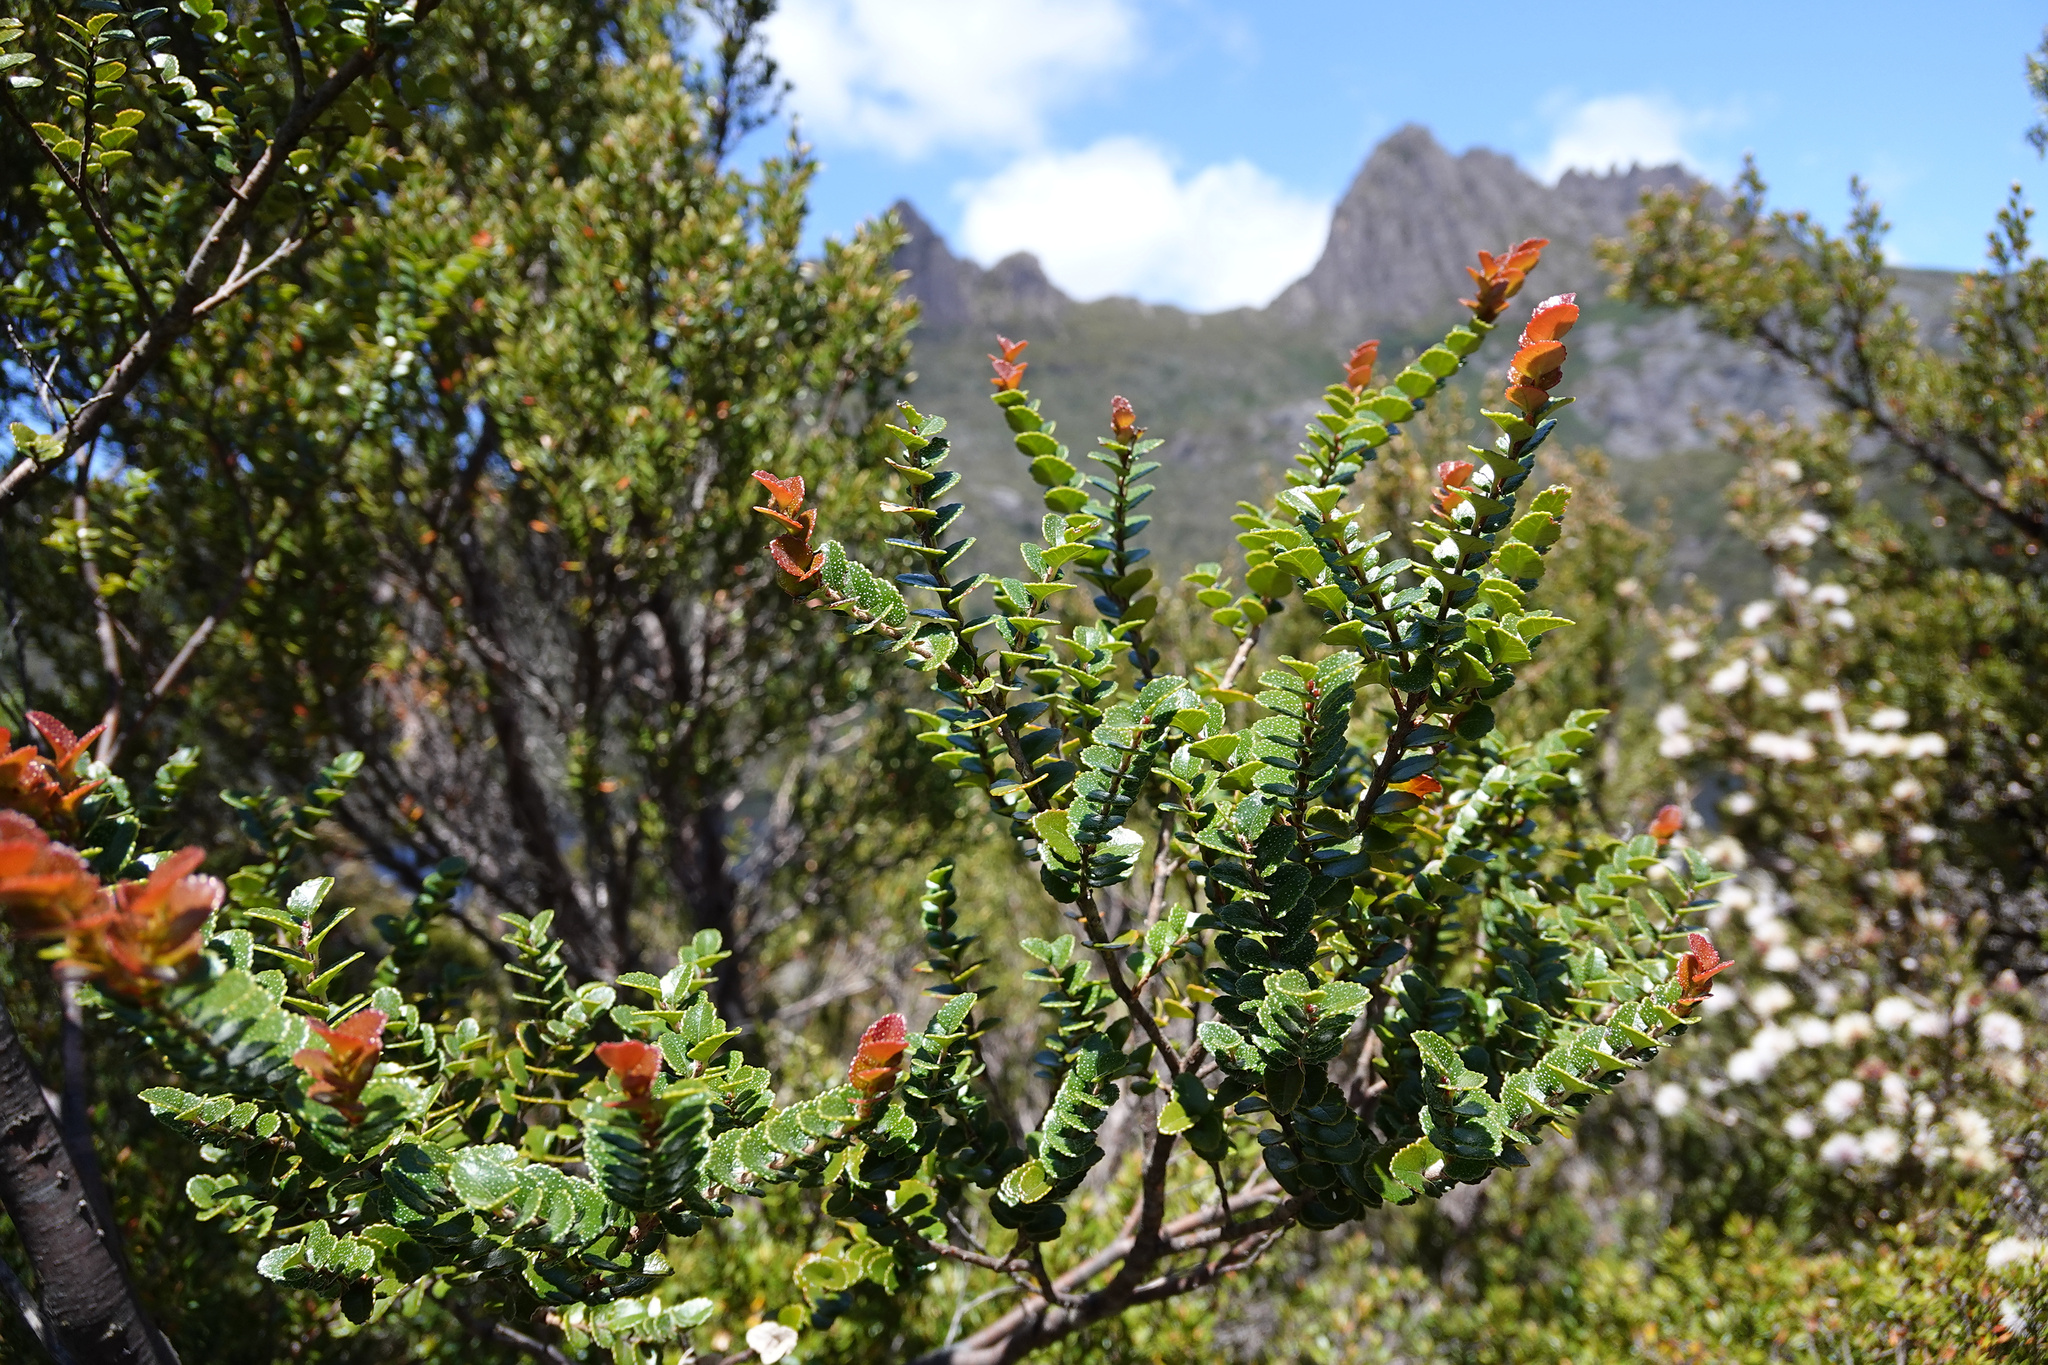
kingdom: Plantae
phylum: Tracheophyta
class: Magnoliopsida
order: Fagales
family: Nothofagaceae
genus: Nothofagus
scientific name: Nothofagus cunninghamii
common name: Myrtle beech
